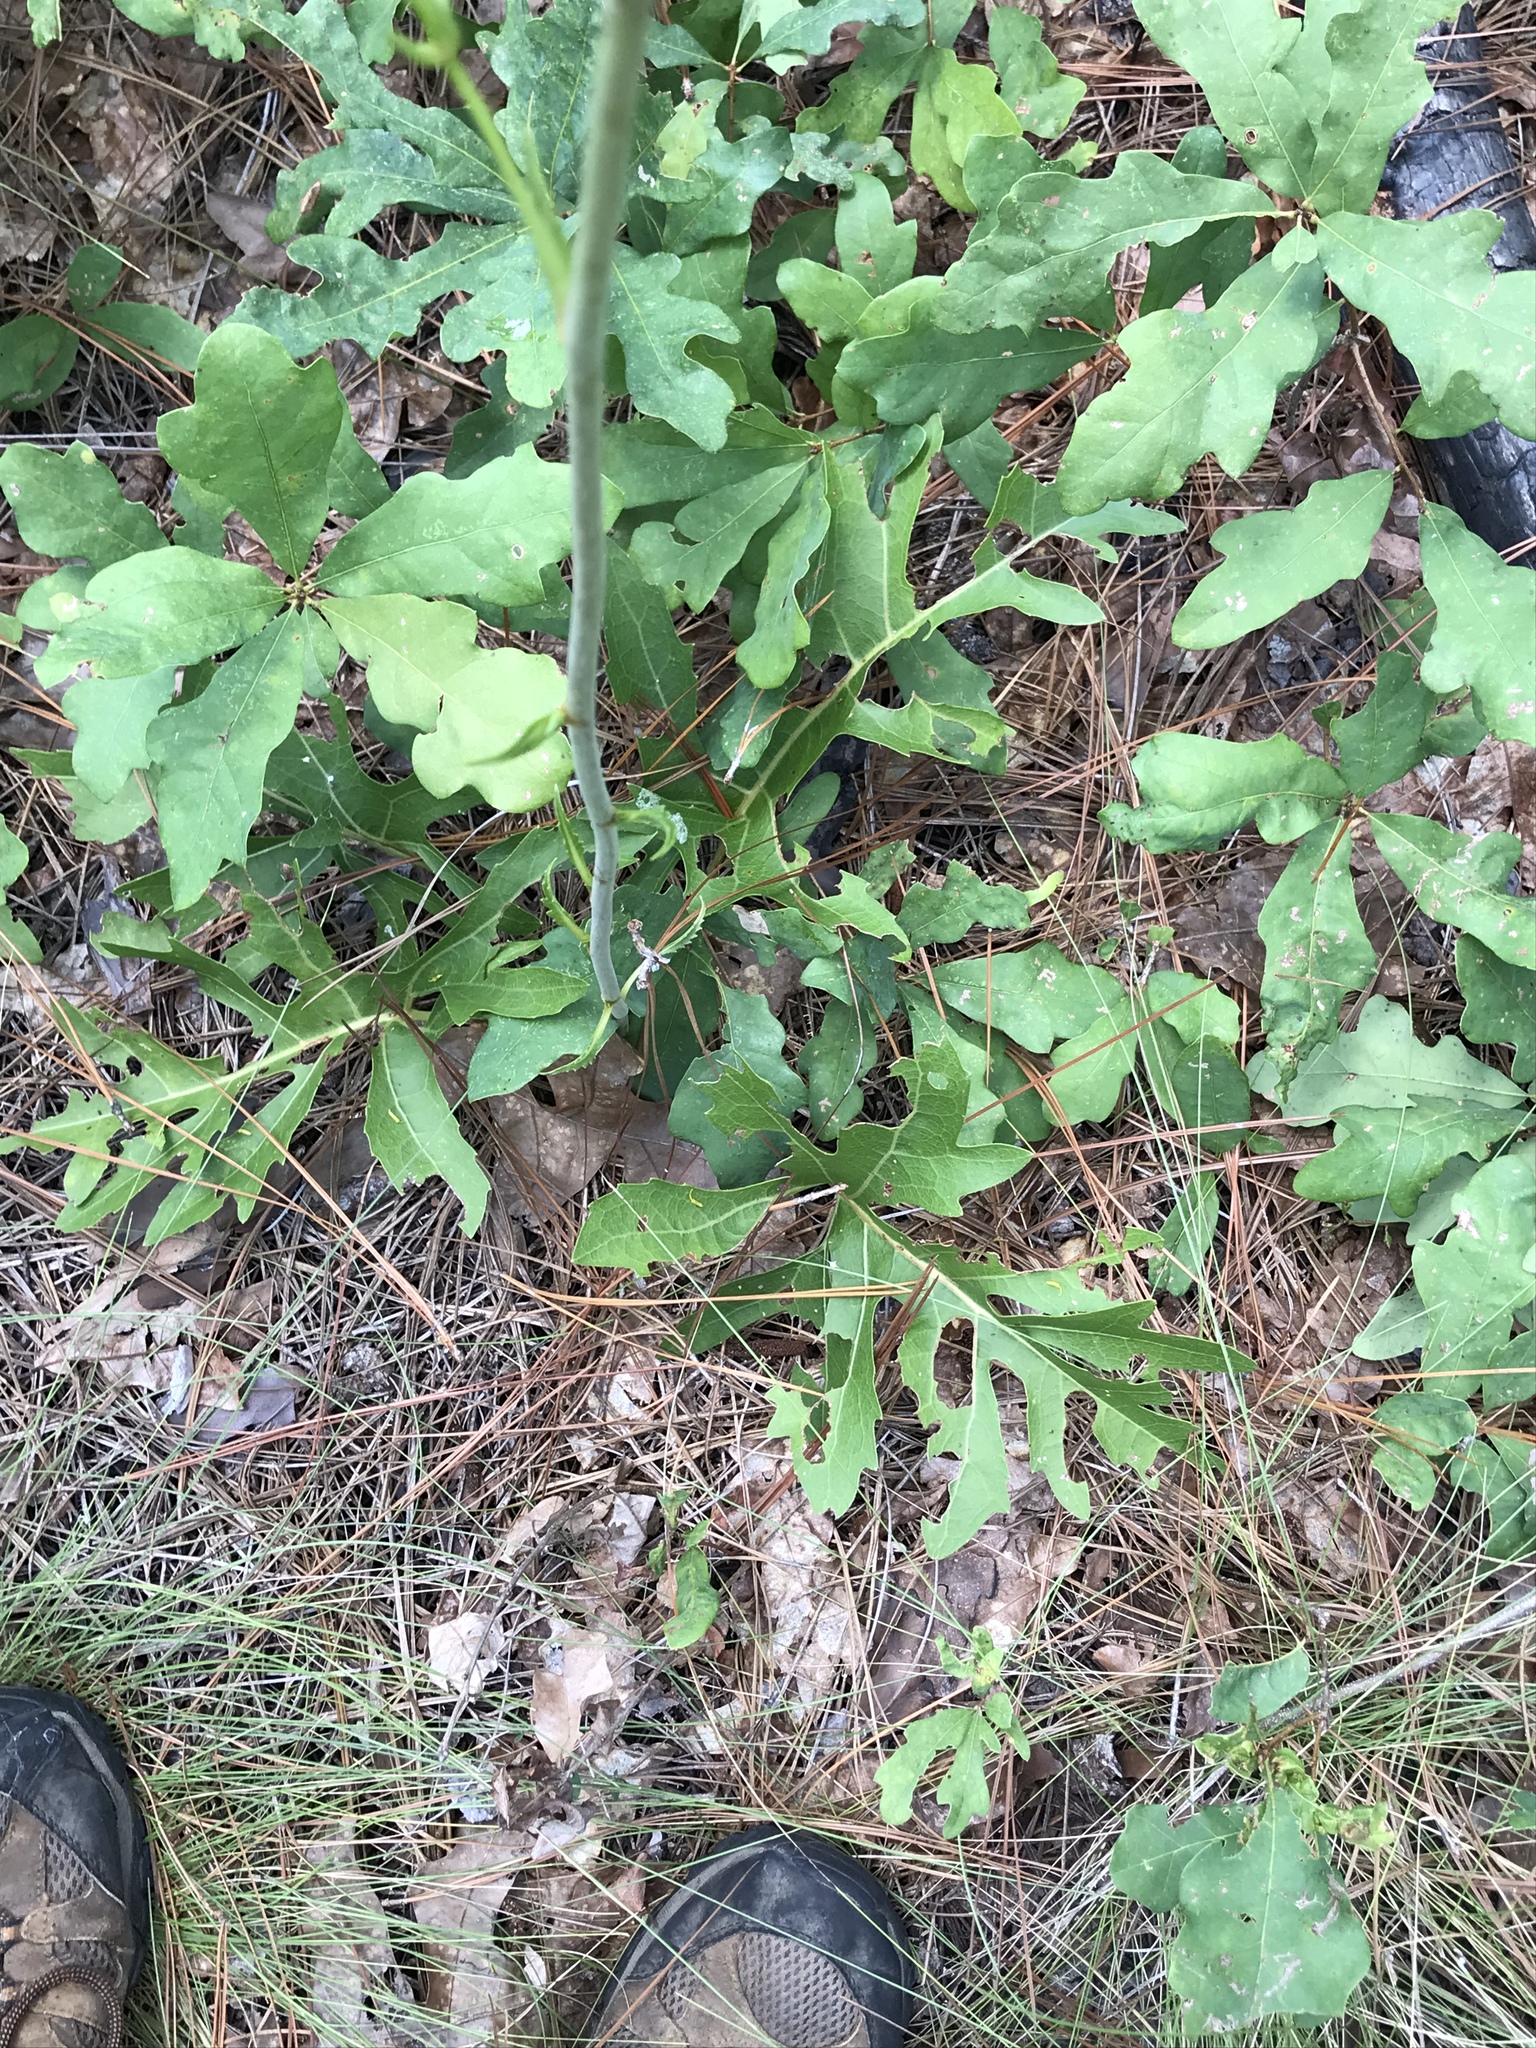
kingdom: Plantae
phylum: Tracheophyta
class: Magnoliopsida
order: Asterales
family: Asteraceae
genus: Silphium
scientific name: Silphium compositum
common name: Lesser basal-leaf rosinweed
